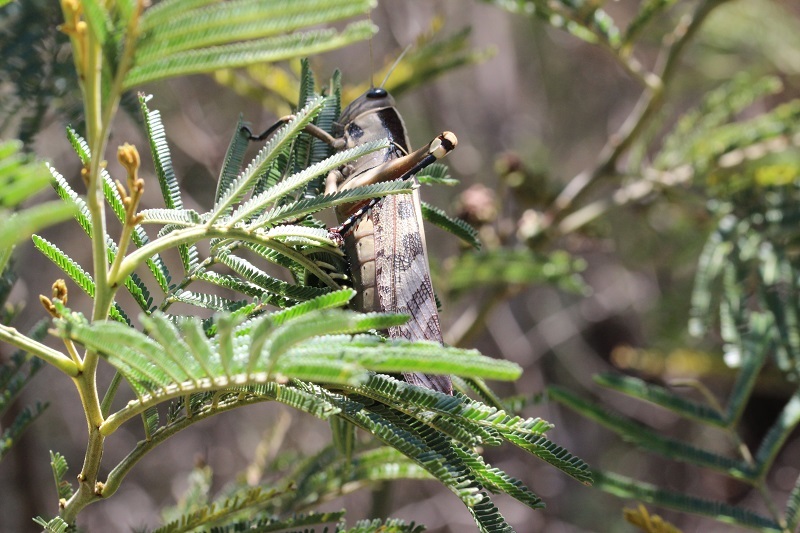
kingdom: Animalia
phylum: Arthropoda
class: Insecta
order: Orthoptera
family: Acrididae
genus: Acanthacris
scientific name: Acanthacris ruficornis
